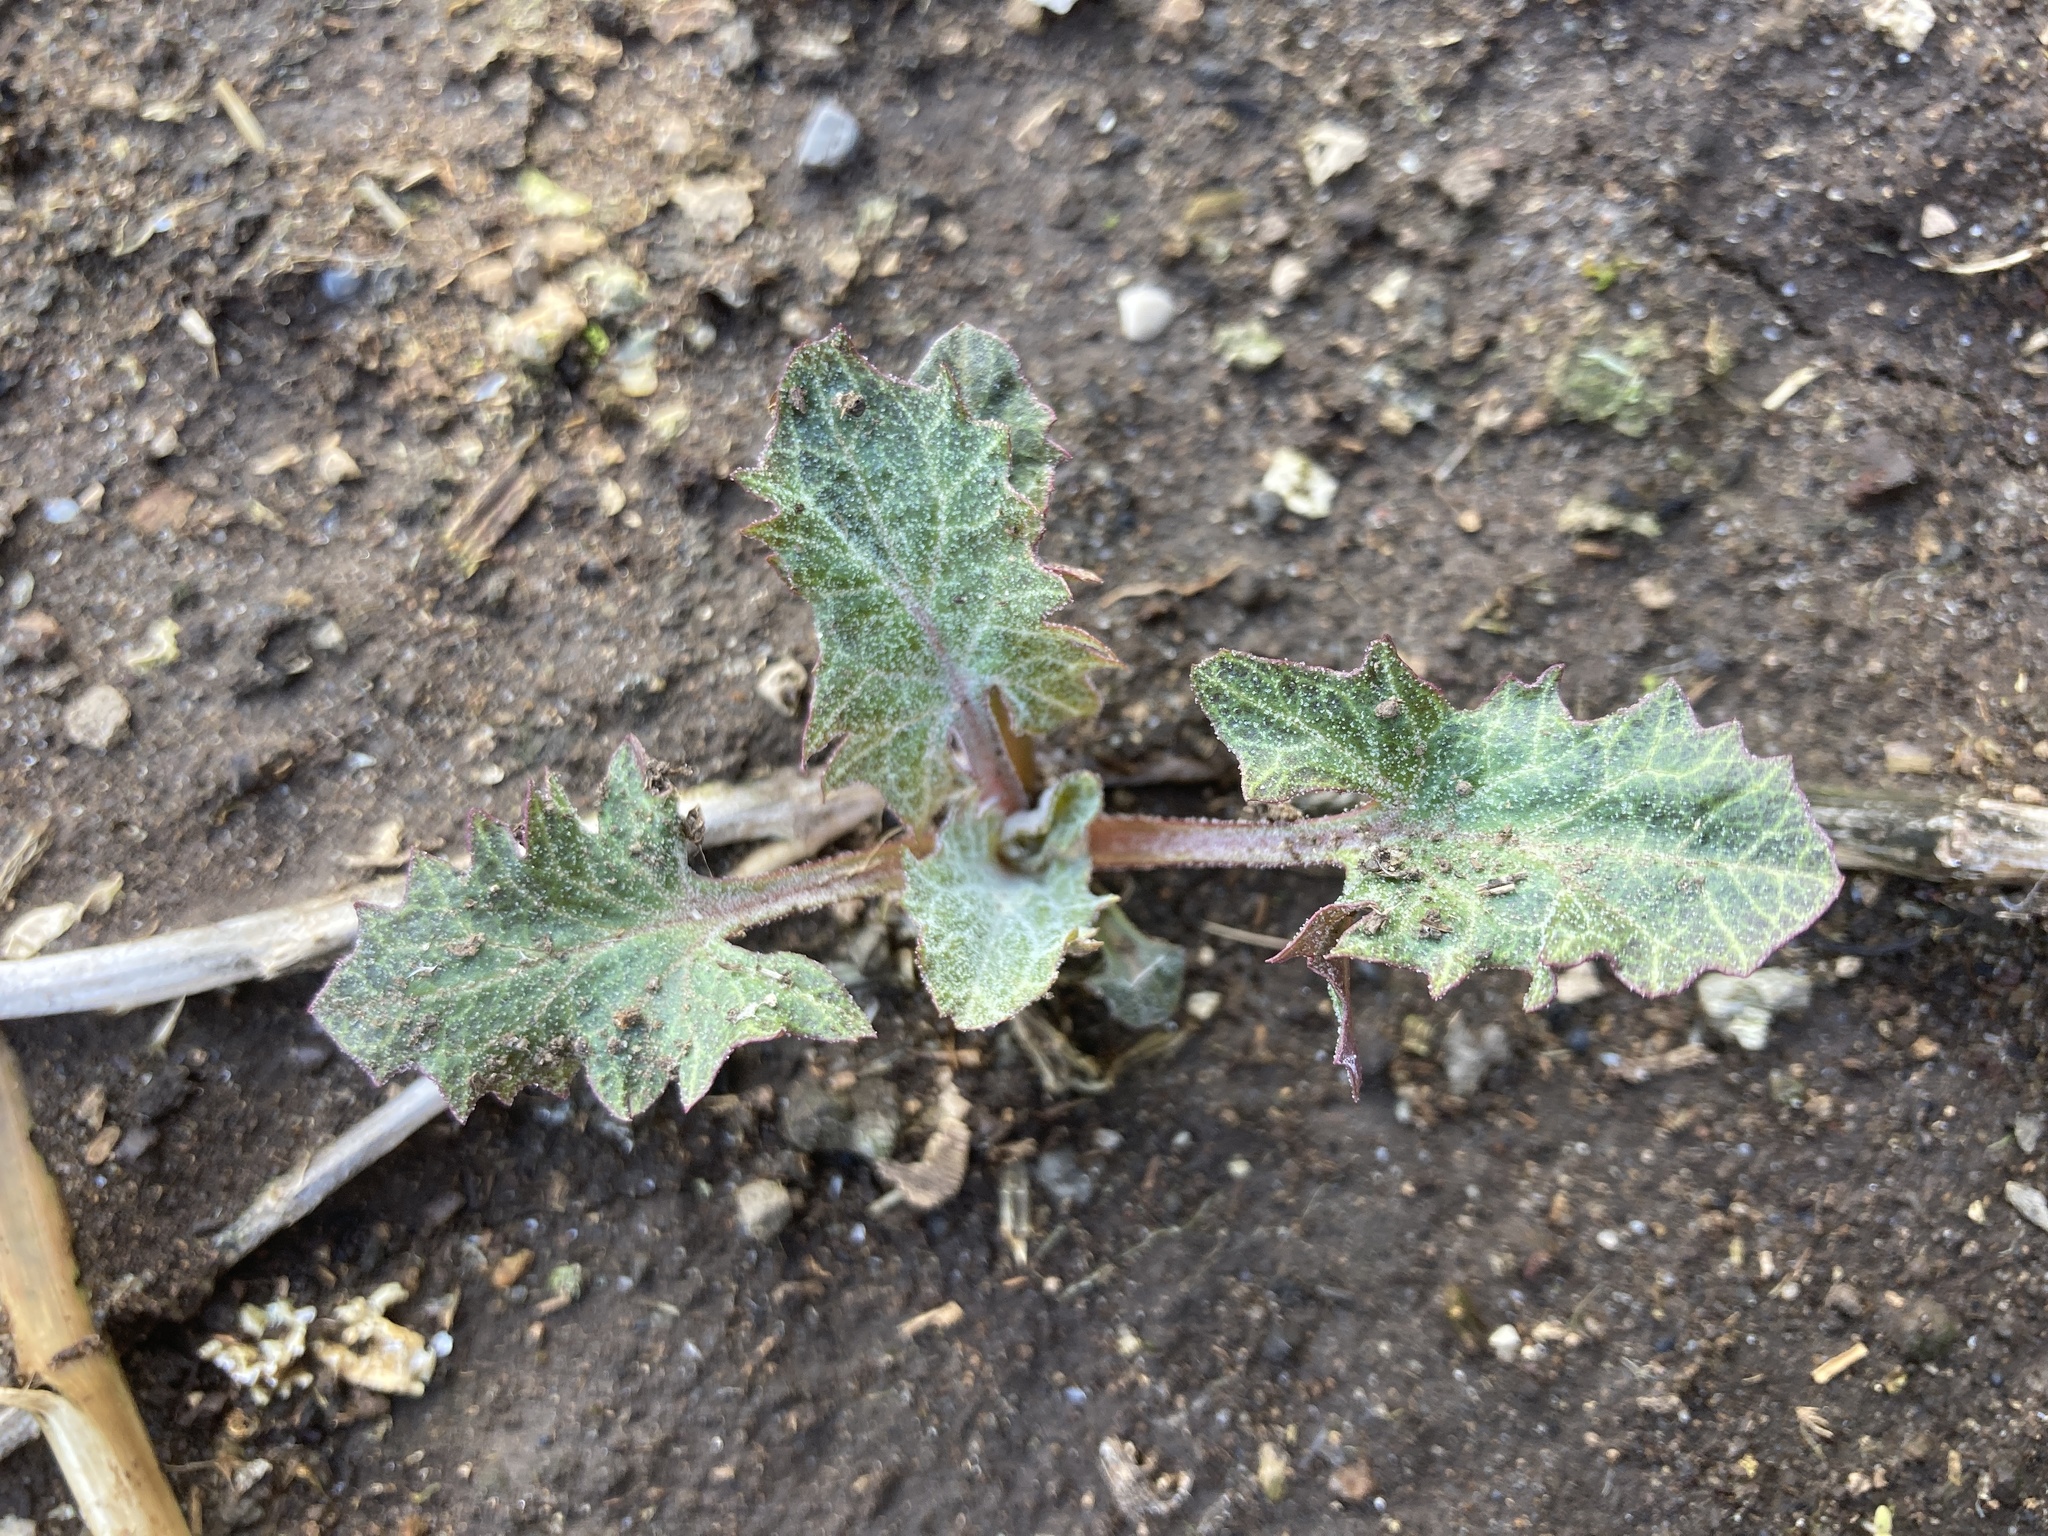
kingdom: Plantae
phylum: Tracheophyta
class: Magnoliopsida
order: Caryophyllales
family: Amaranthaceae
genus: Blitum
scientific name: Blitum californicum
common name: California goosefoot
